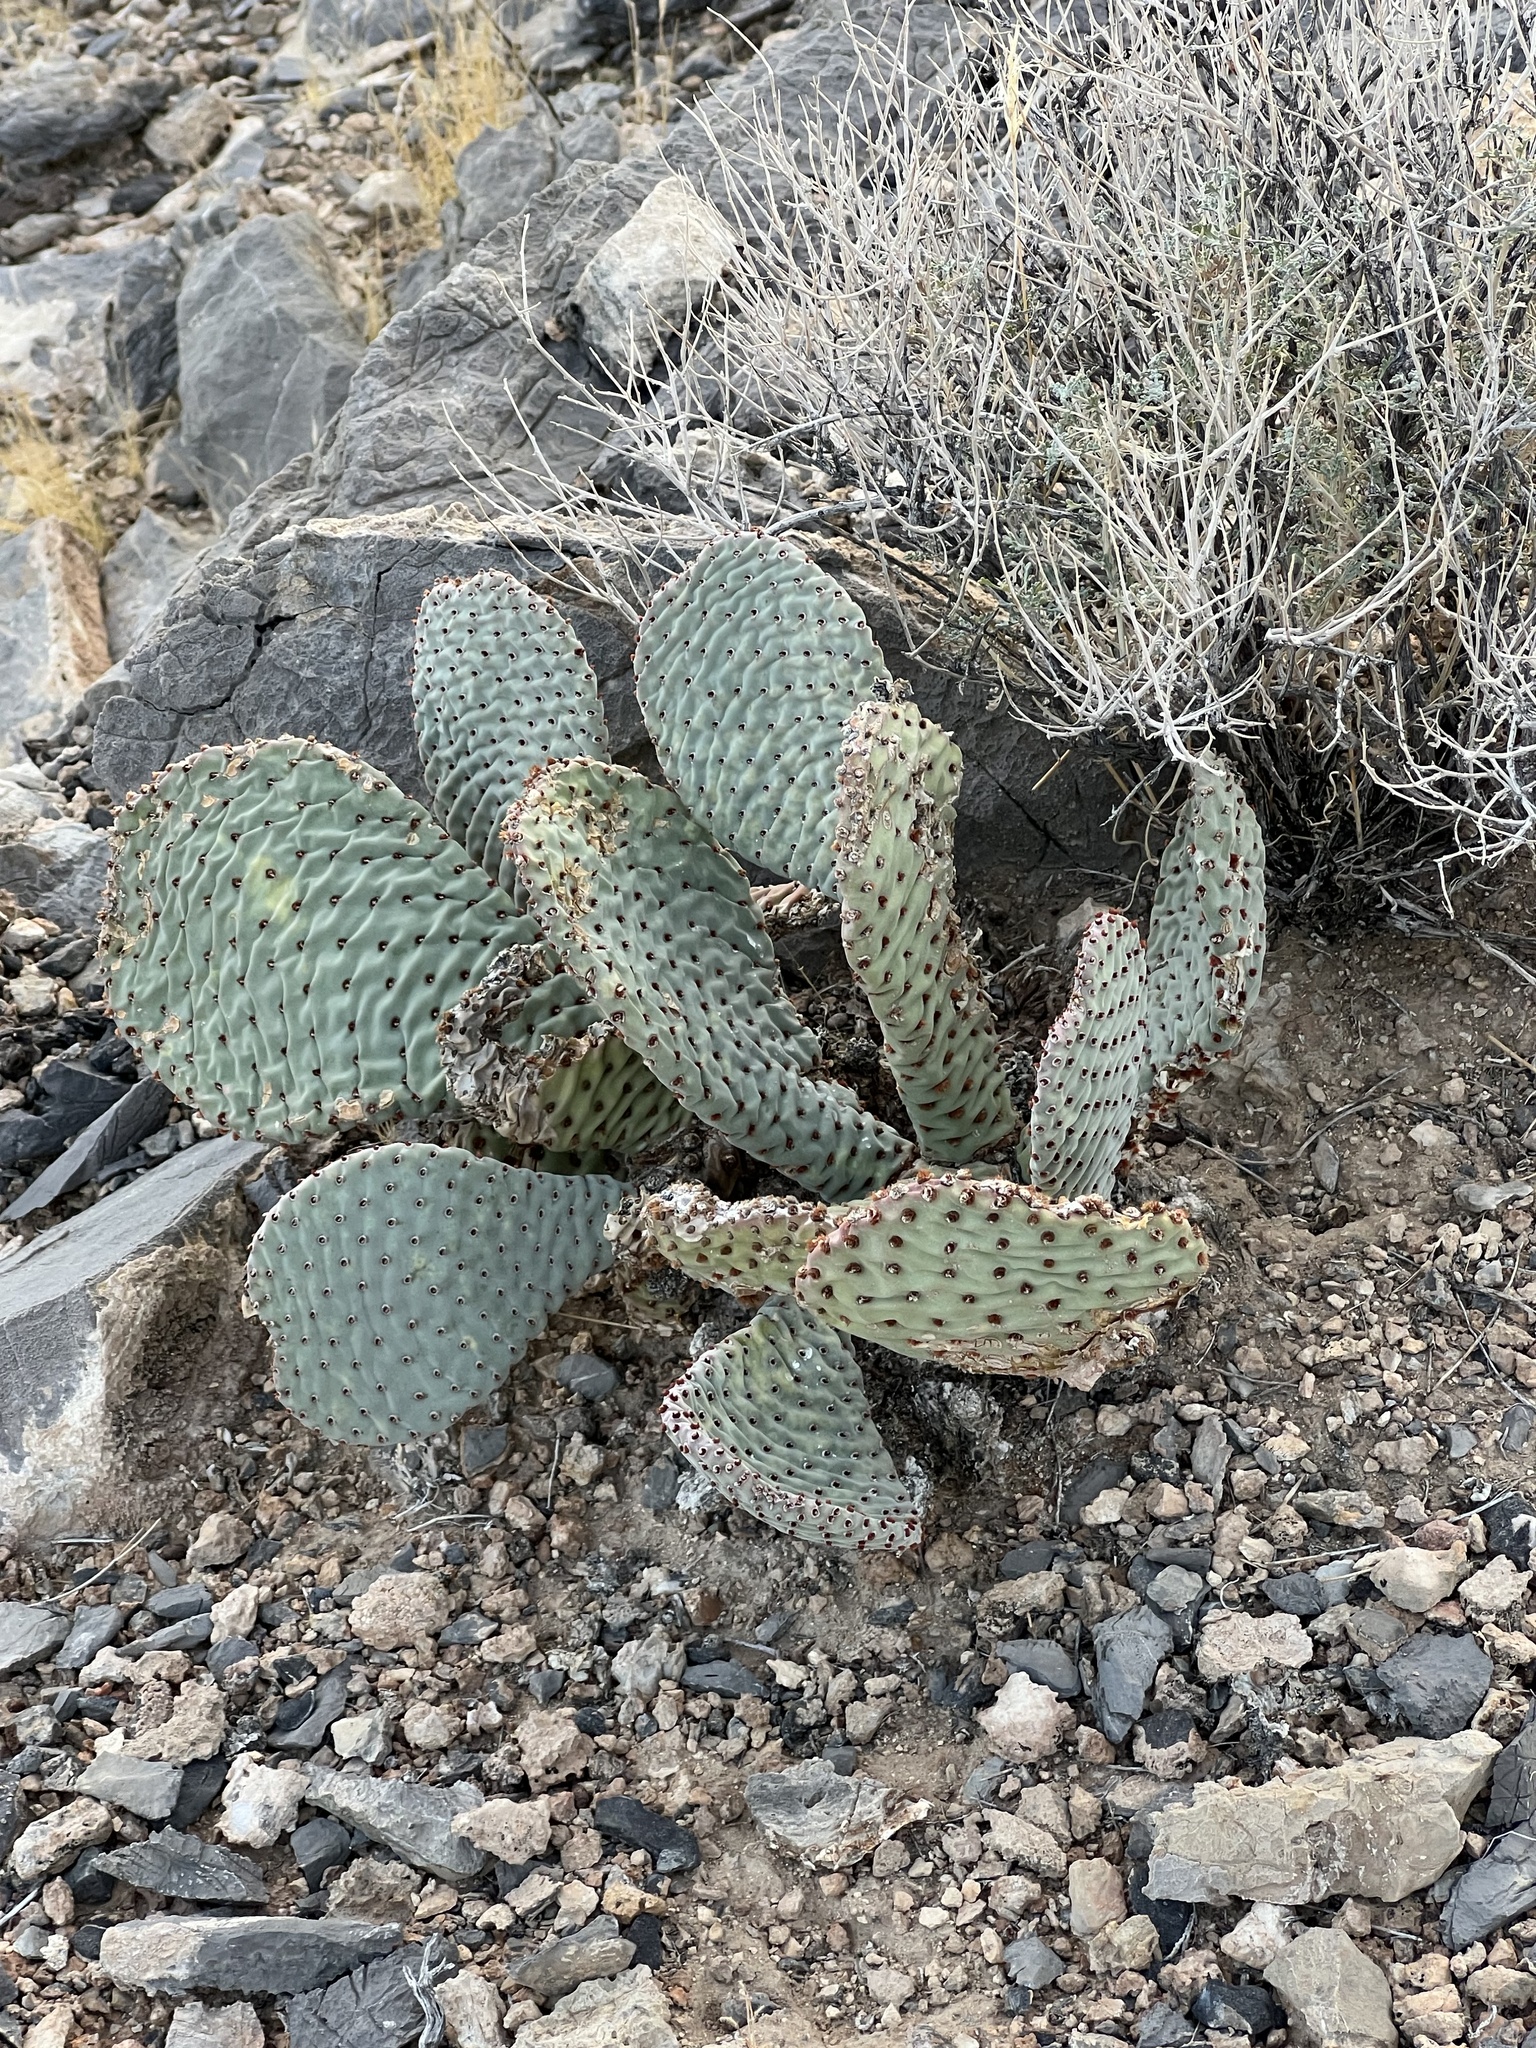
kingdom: Plantae
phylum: Tracheophyta
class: Magnoliopsida
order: Caryophyllales
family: Cactaceae
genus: Opuntia
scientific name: Opuntia basilaris
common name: Beavertail prickly-pear
